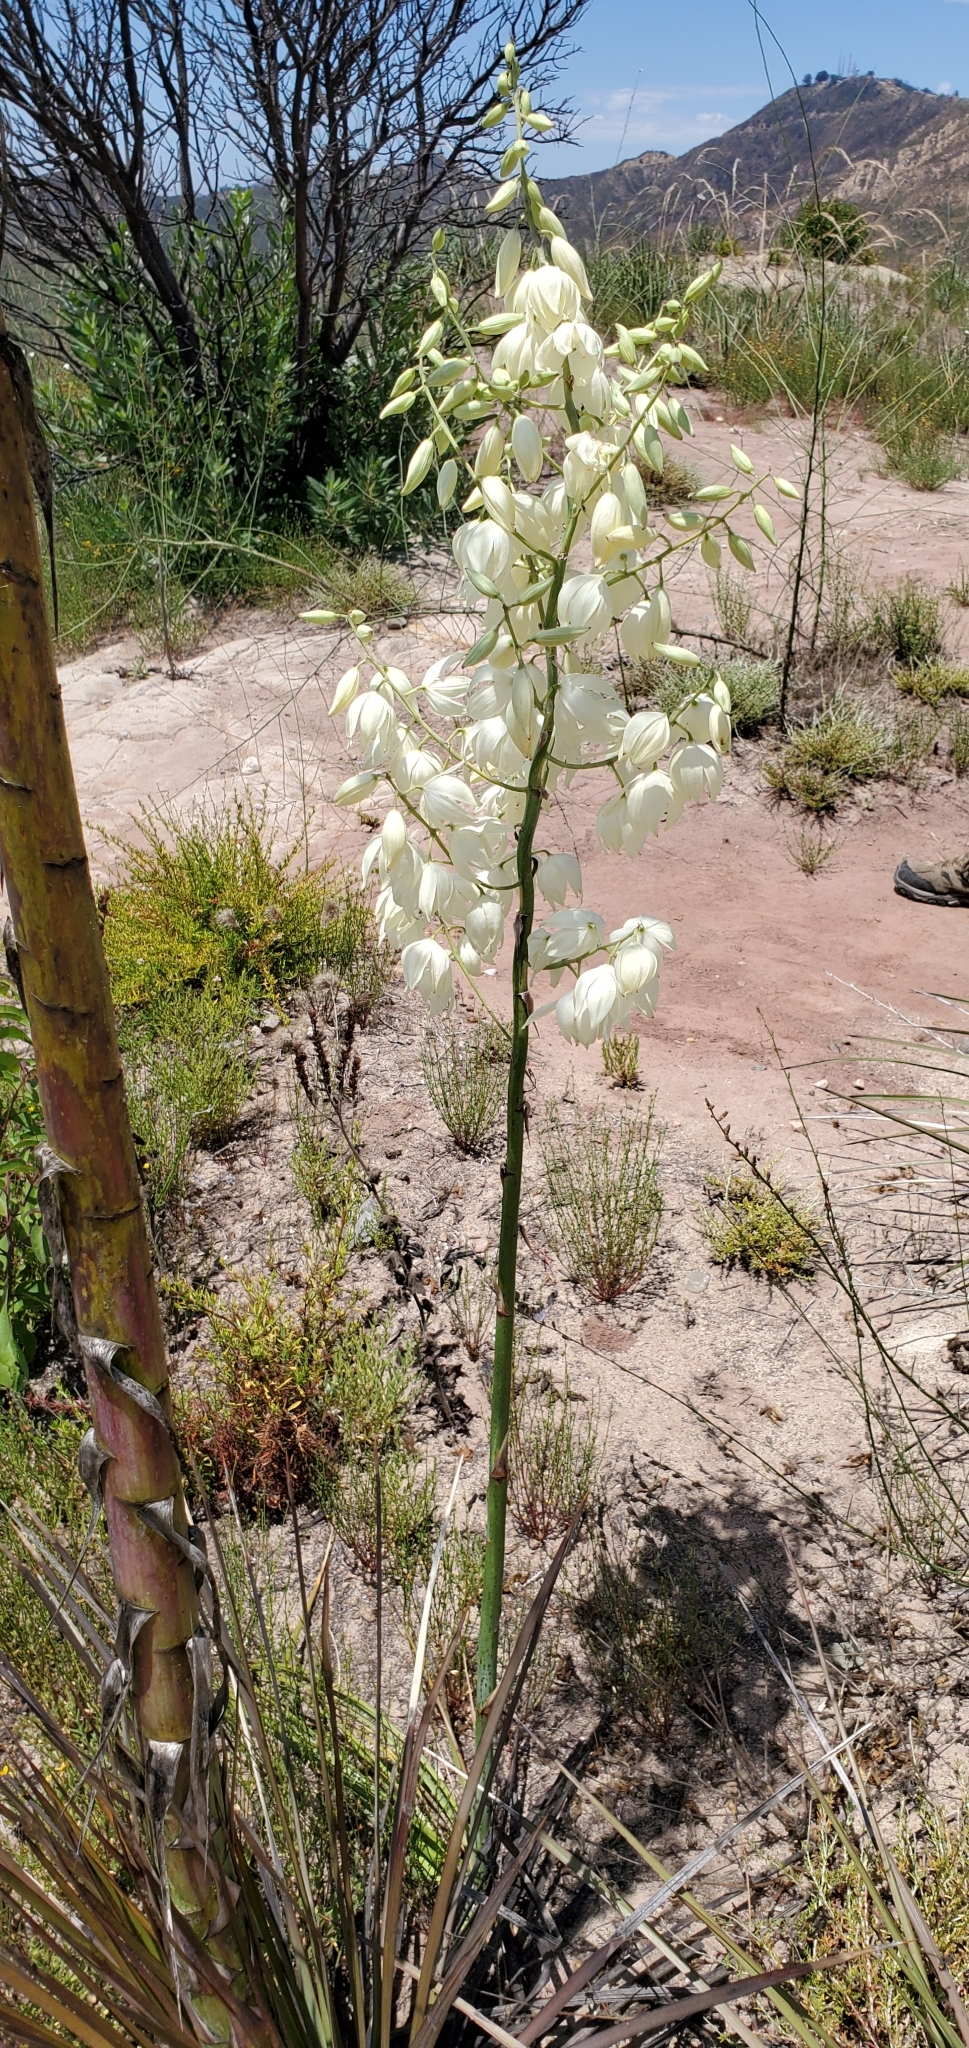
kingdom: Plantae
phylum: Tracheophyta
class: Liliopsida
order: Asparagales
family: Asparagaceae
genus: Hesperoyucca
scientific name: Hesperoyucca whipplei
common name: Our lord's-candle
